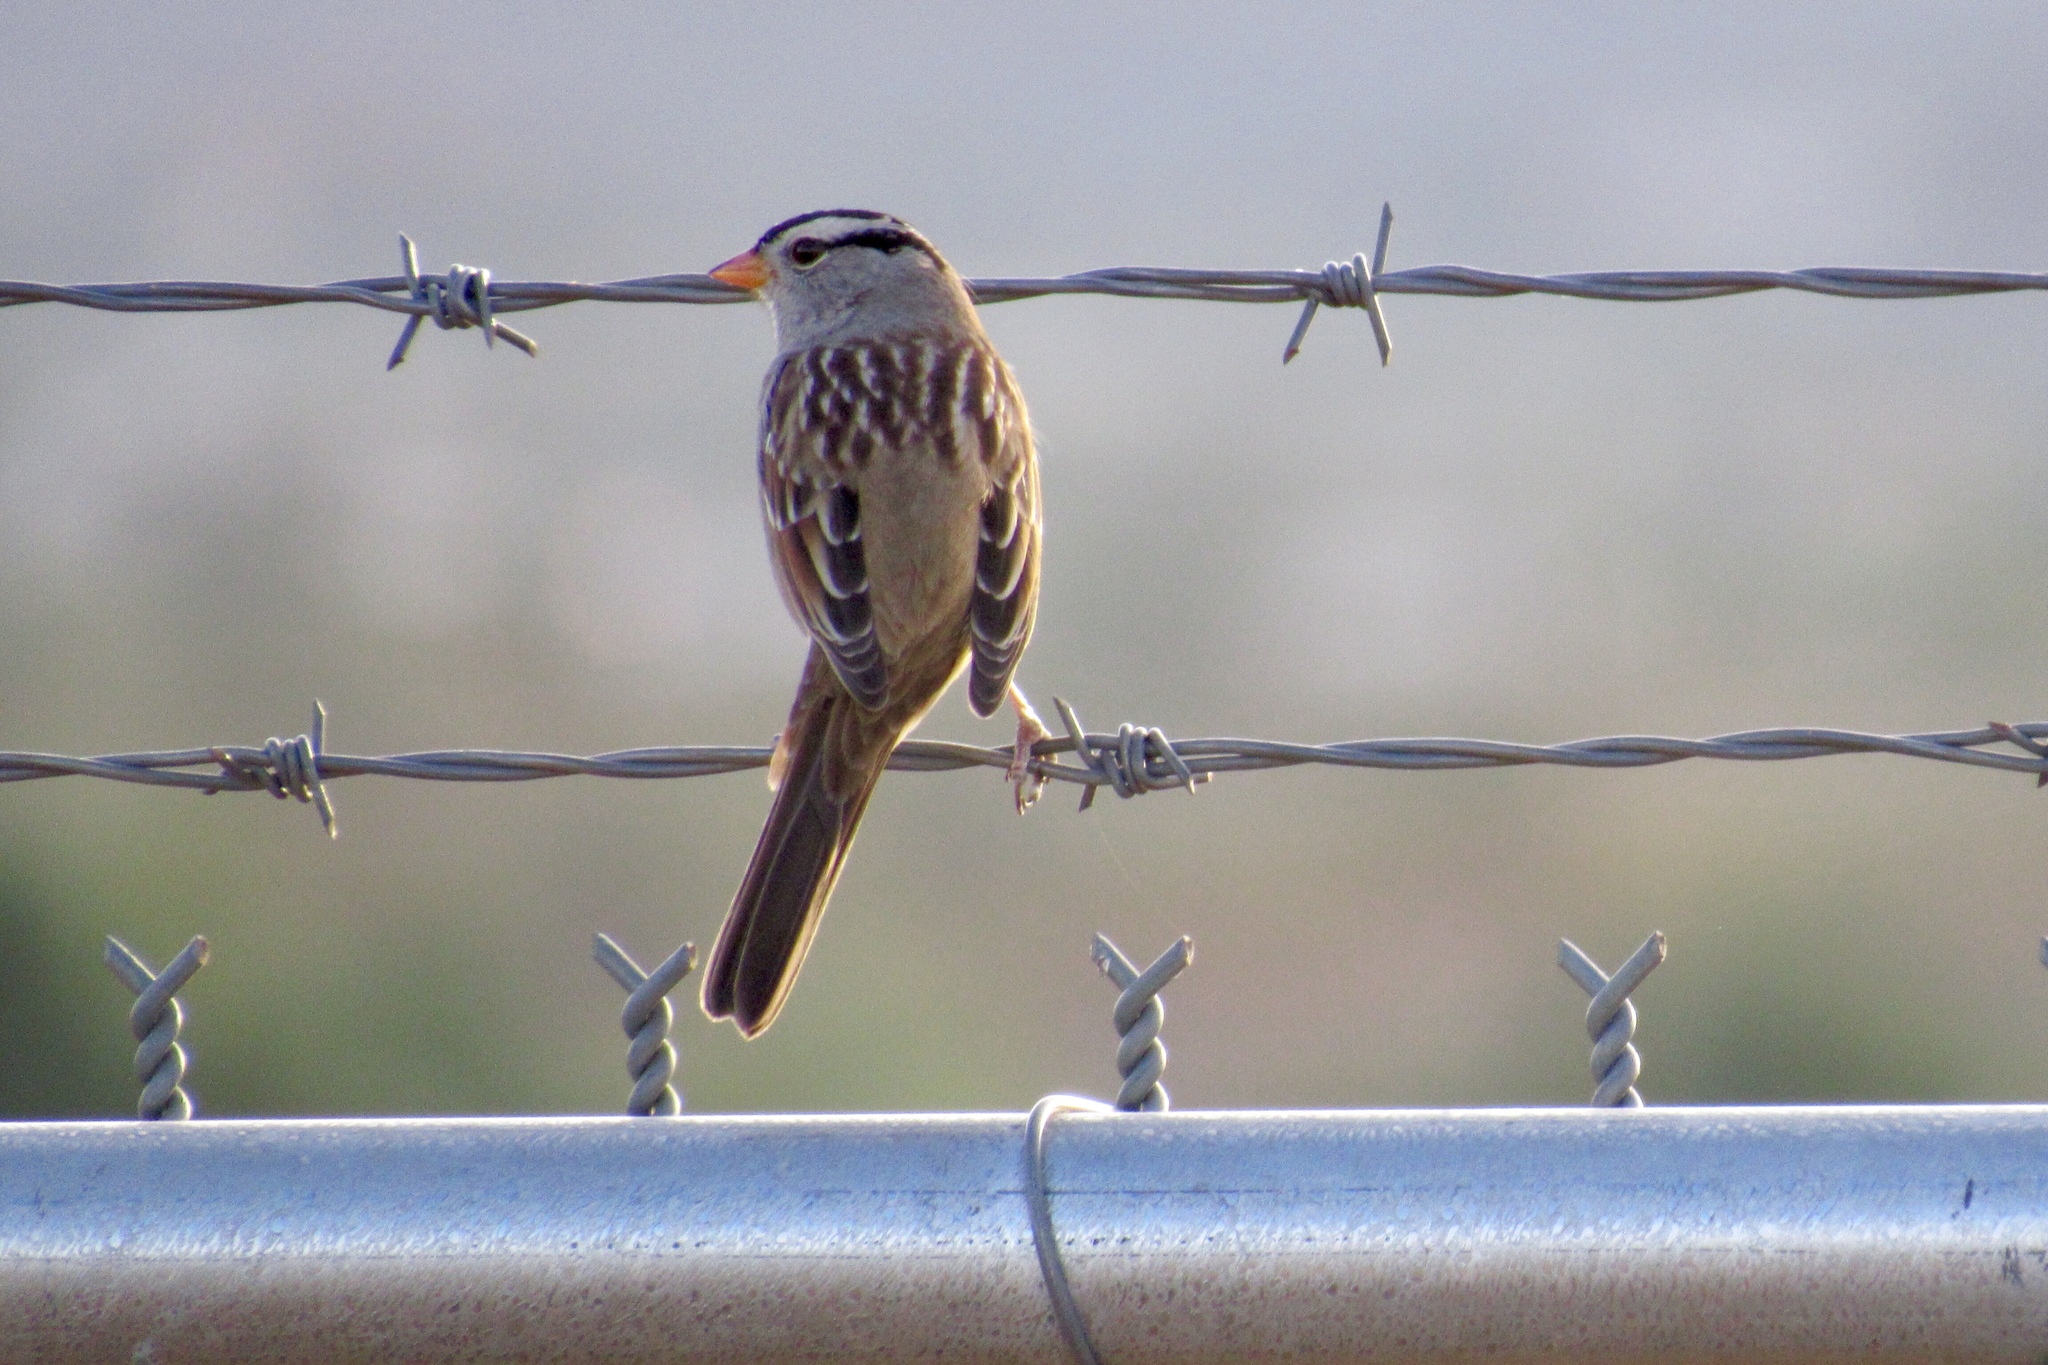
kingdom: Animalia
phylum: Chordata
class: Aves
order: Passeriformes
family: Passerellidae
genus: Zonotrichia
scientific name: Zonotrichia leucophrys
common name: White-crowned sparrow
